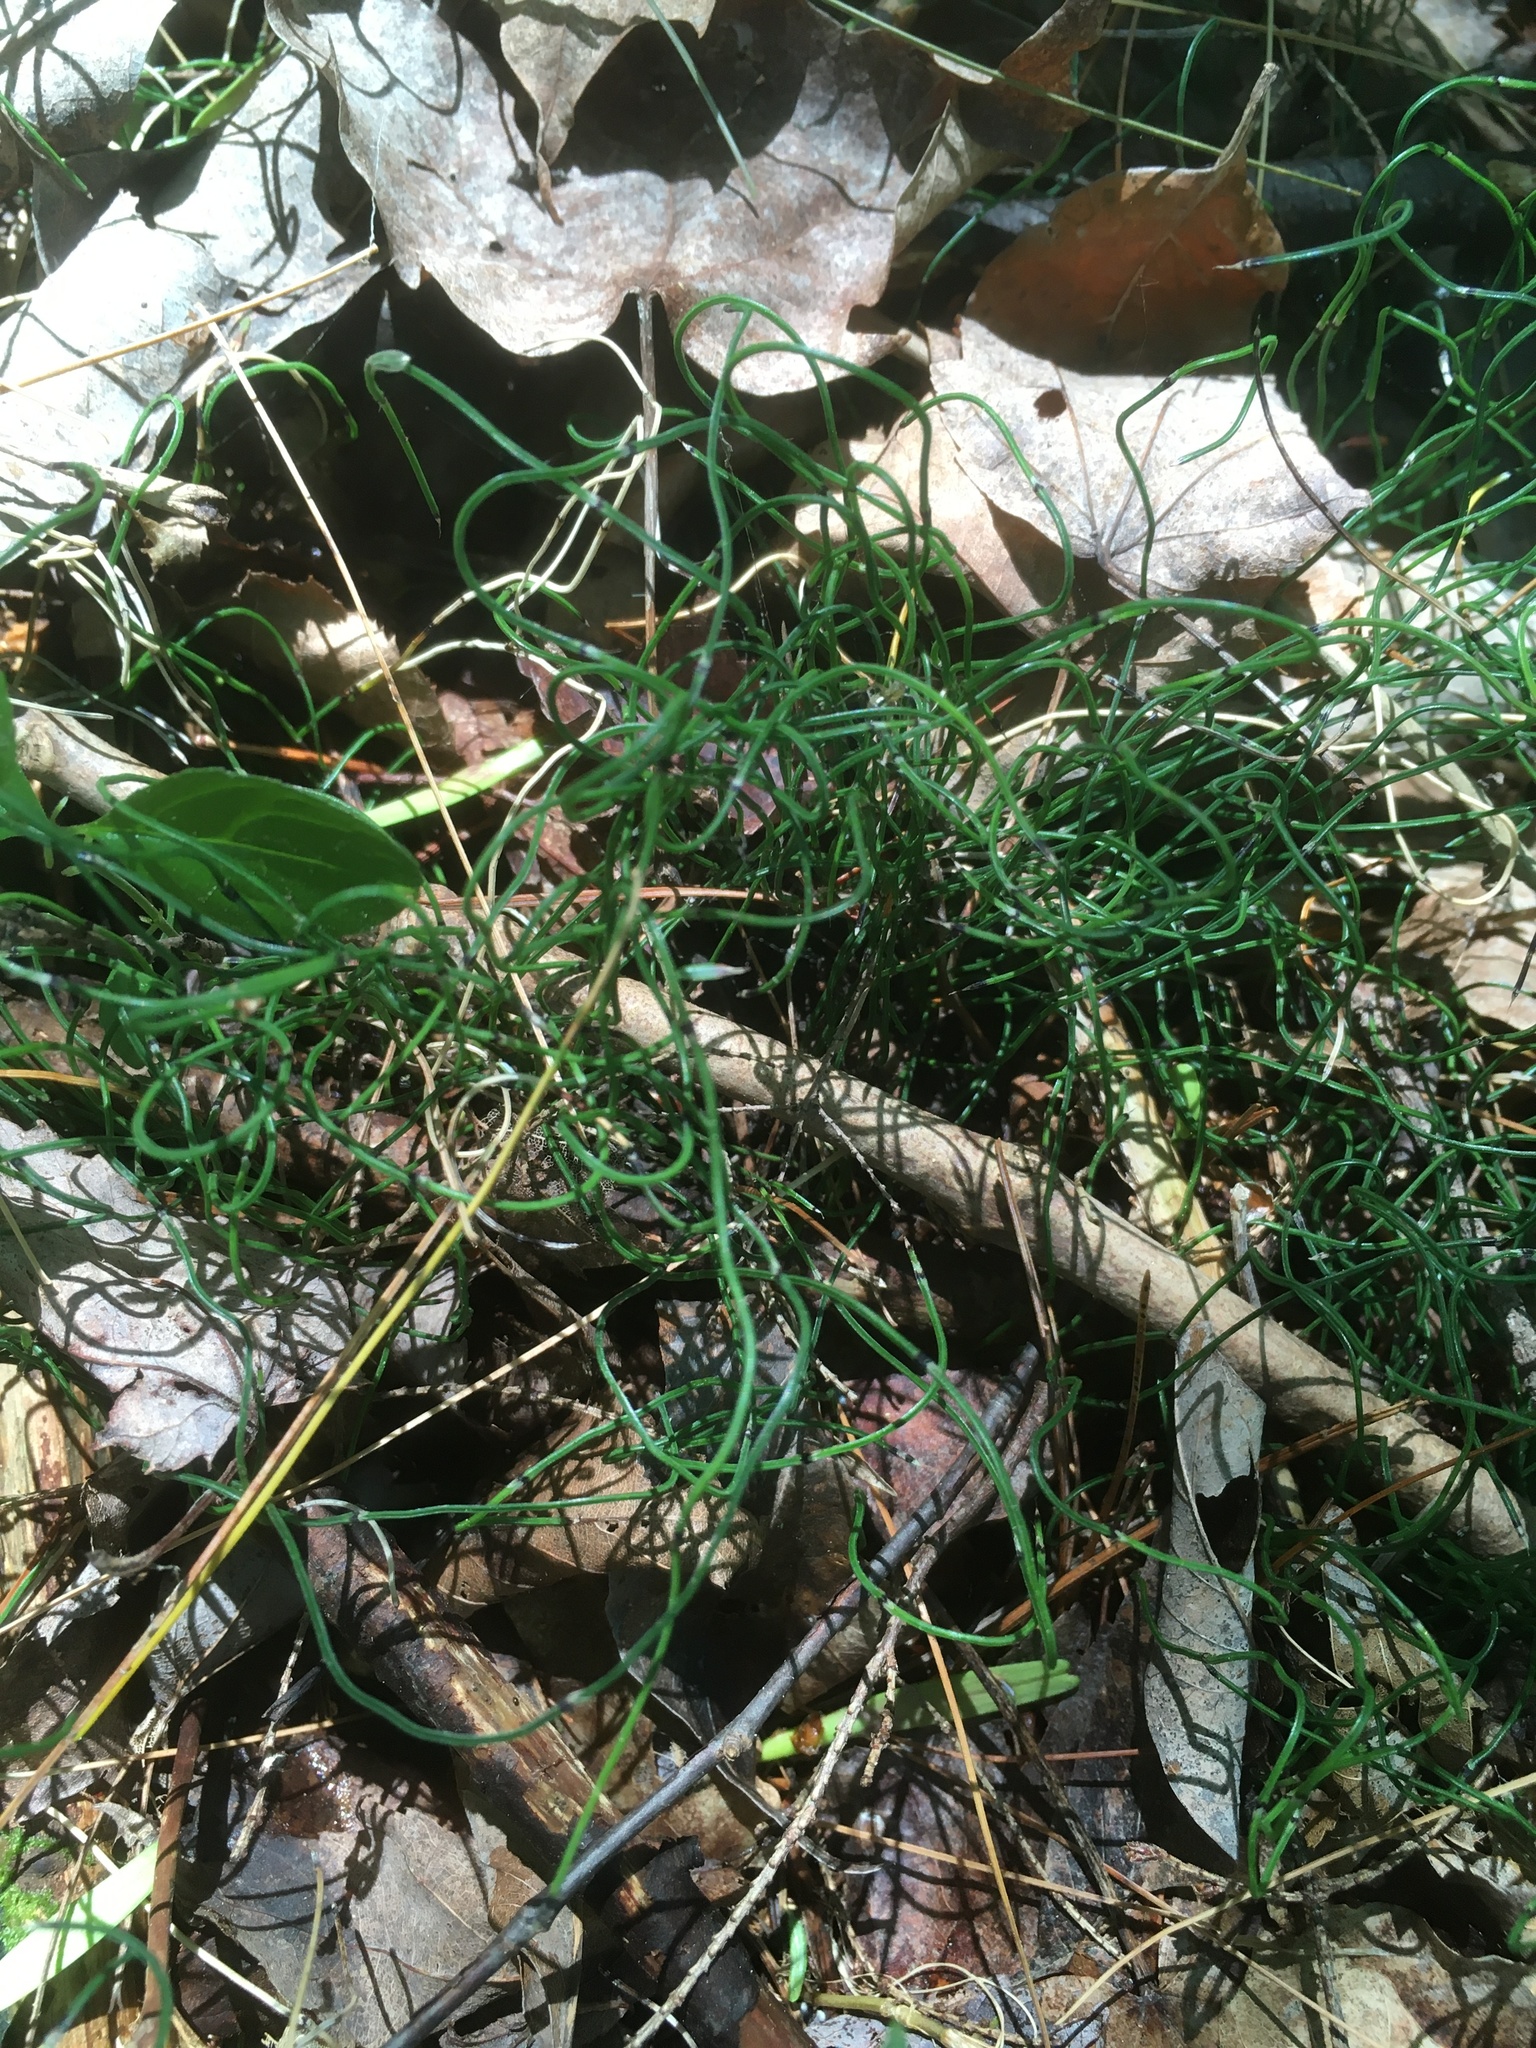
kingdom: Plantae
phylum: Tracheophyta
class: Polypodiopsida
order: Equisetales
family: Equisetaceae
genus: Equisetum
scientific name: Equisetum scirpoides
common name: Delicate horsetail
